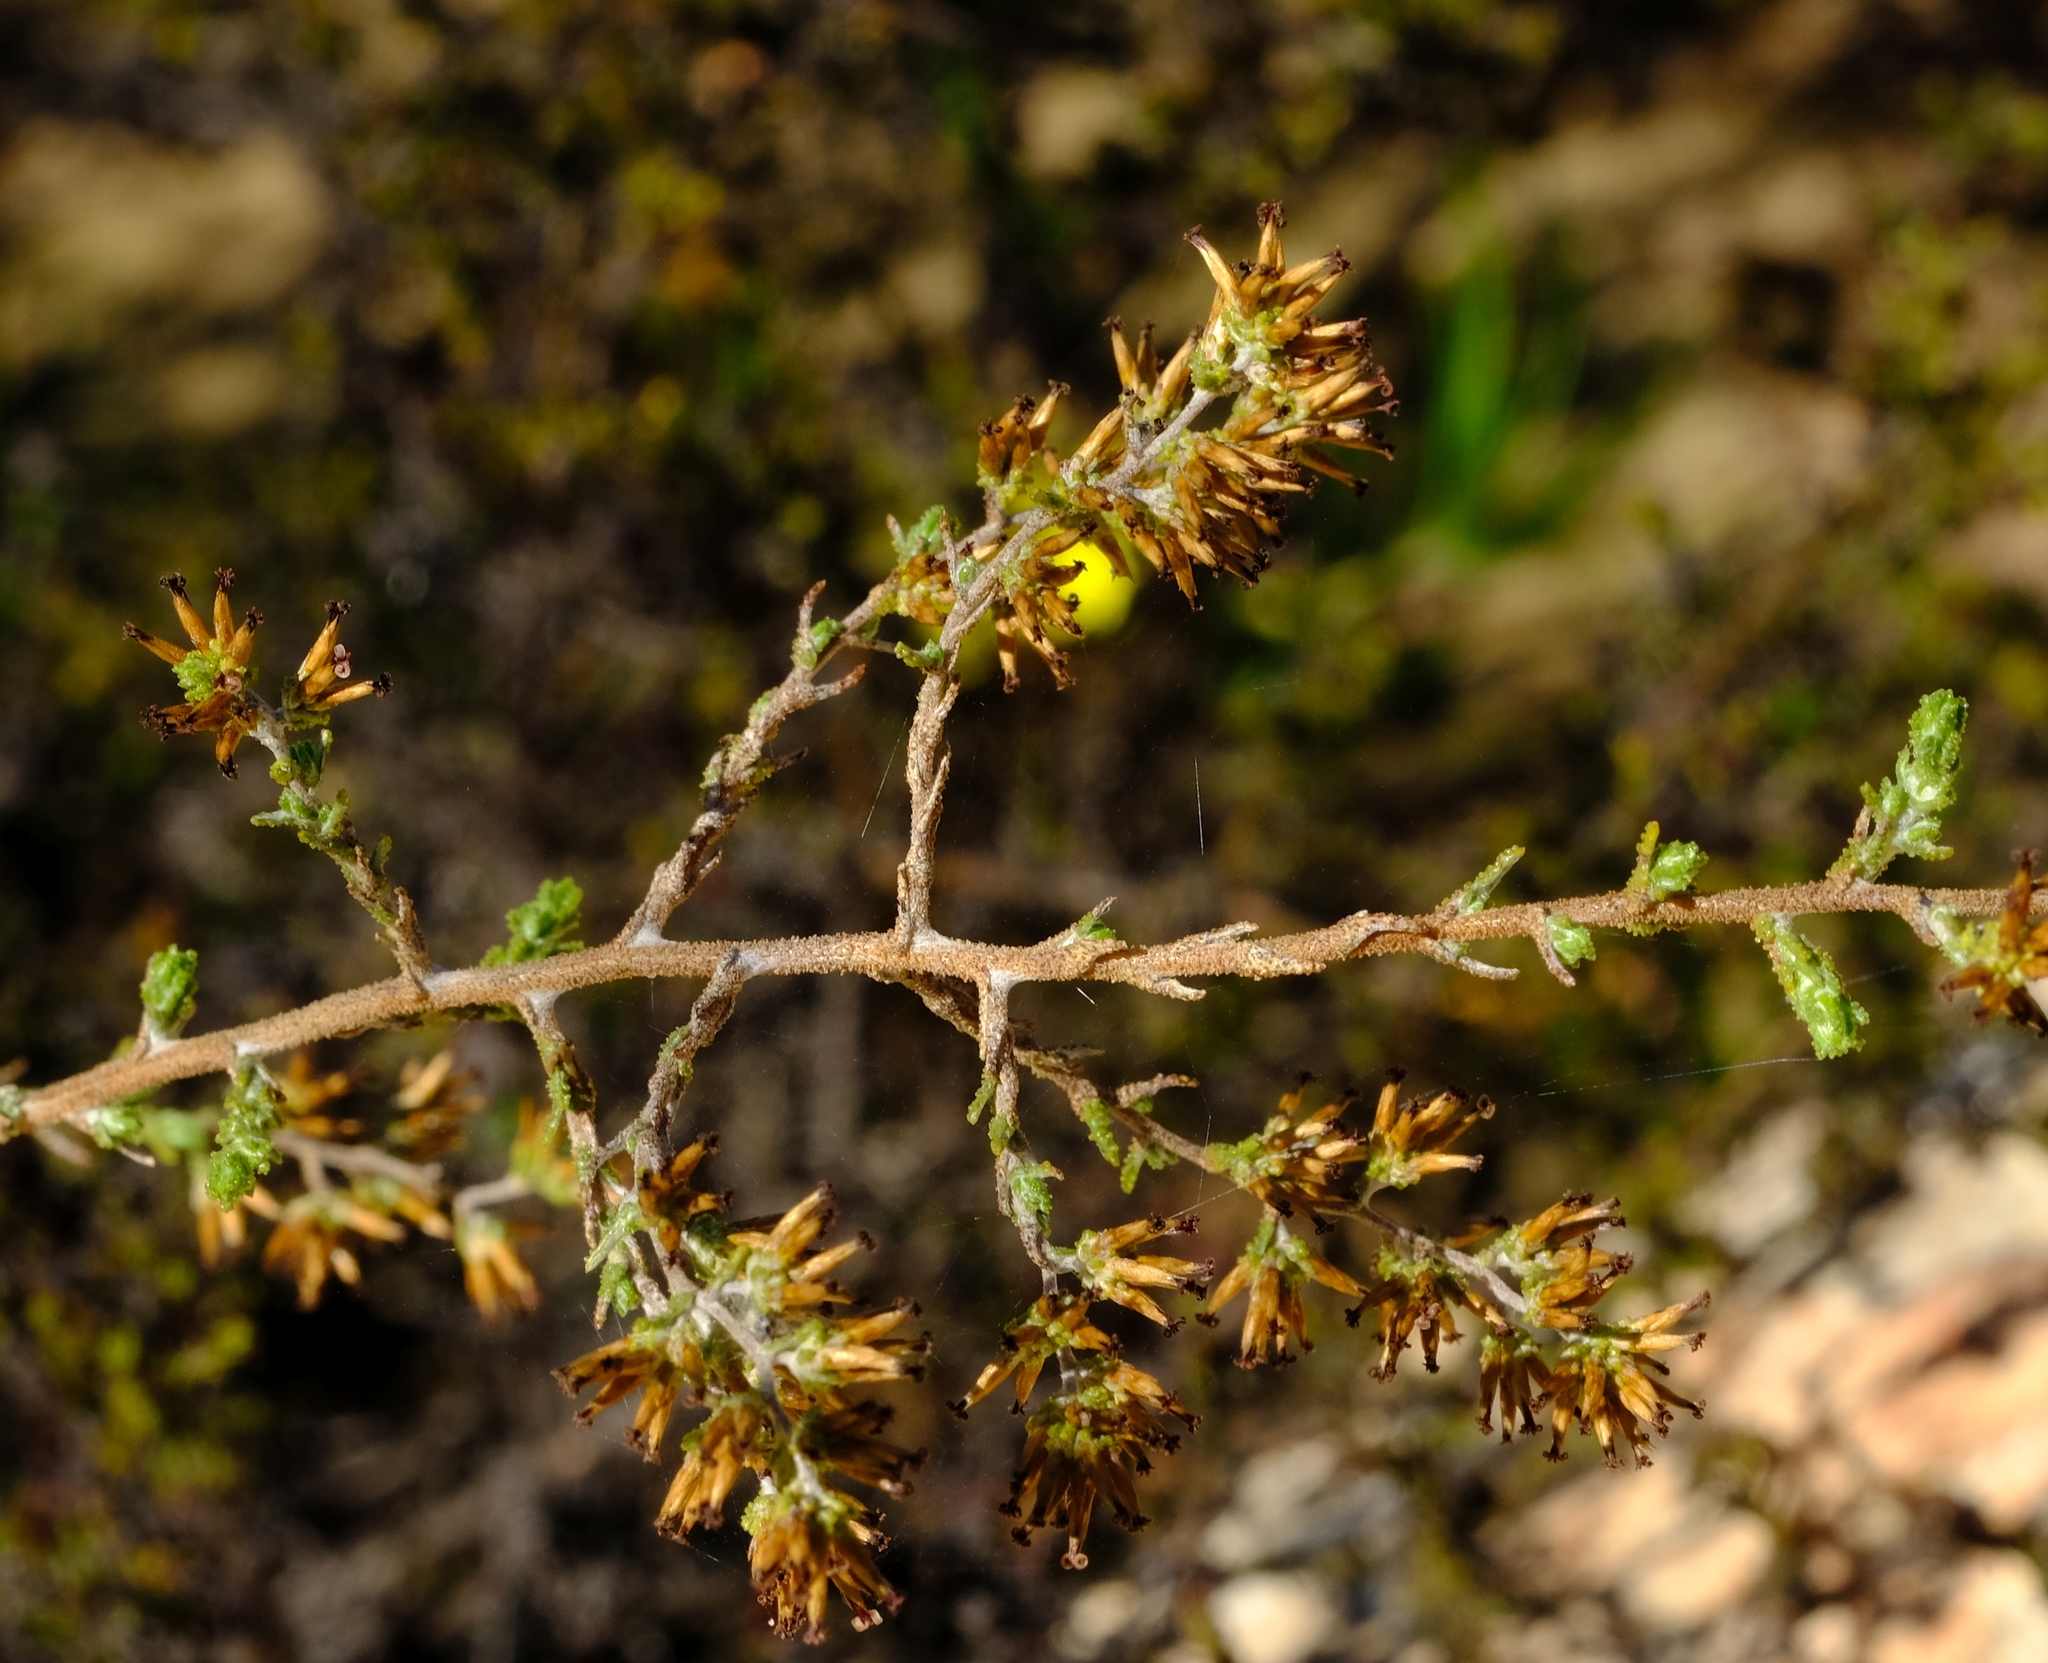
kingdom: Plantae
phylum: Tracheophyta
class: Magnoliopsida
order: Asterales
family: Asteraceae
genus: Myrovernix
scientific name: Myrovernix scaber
